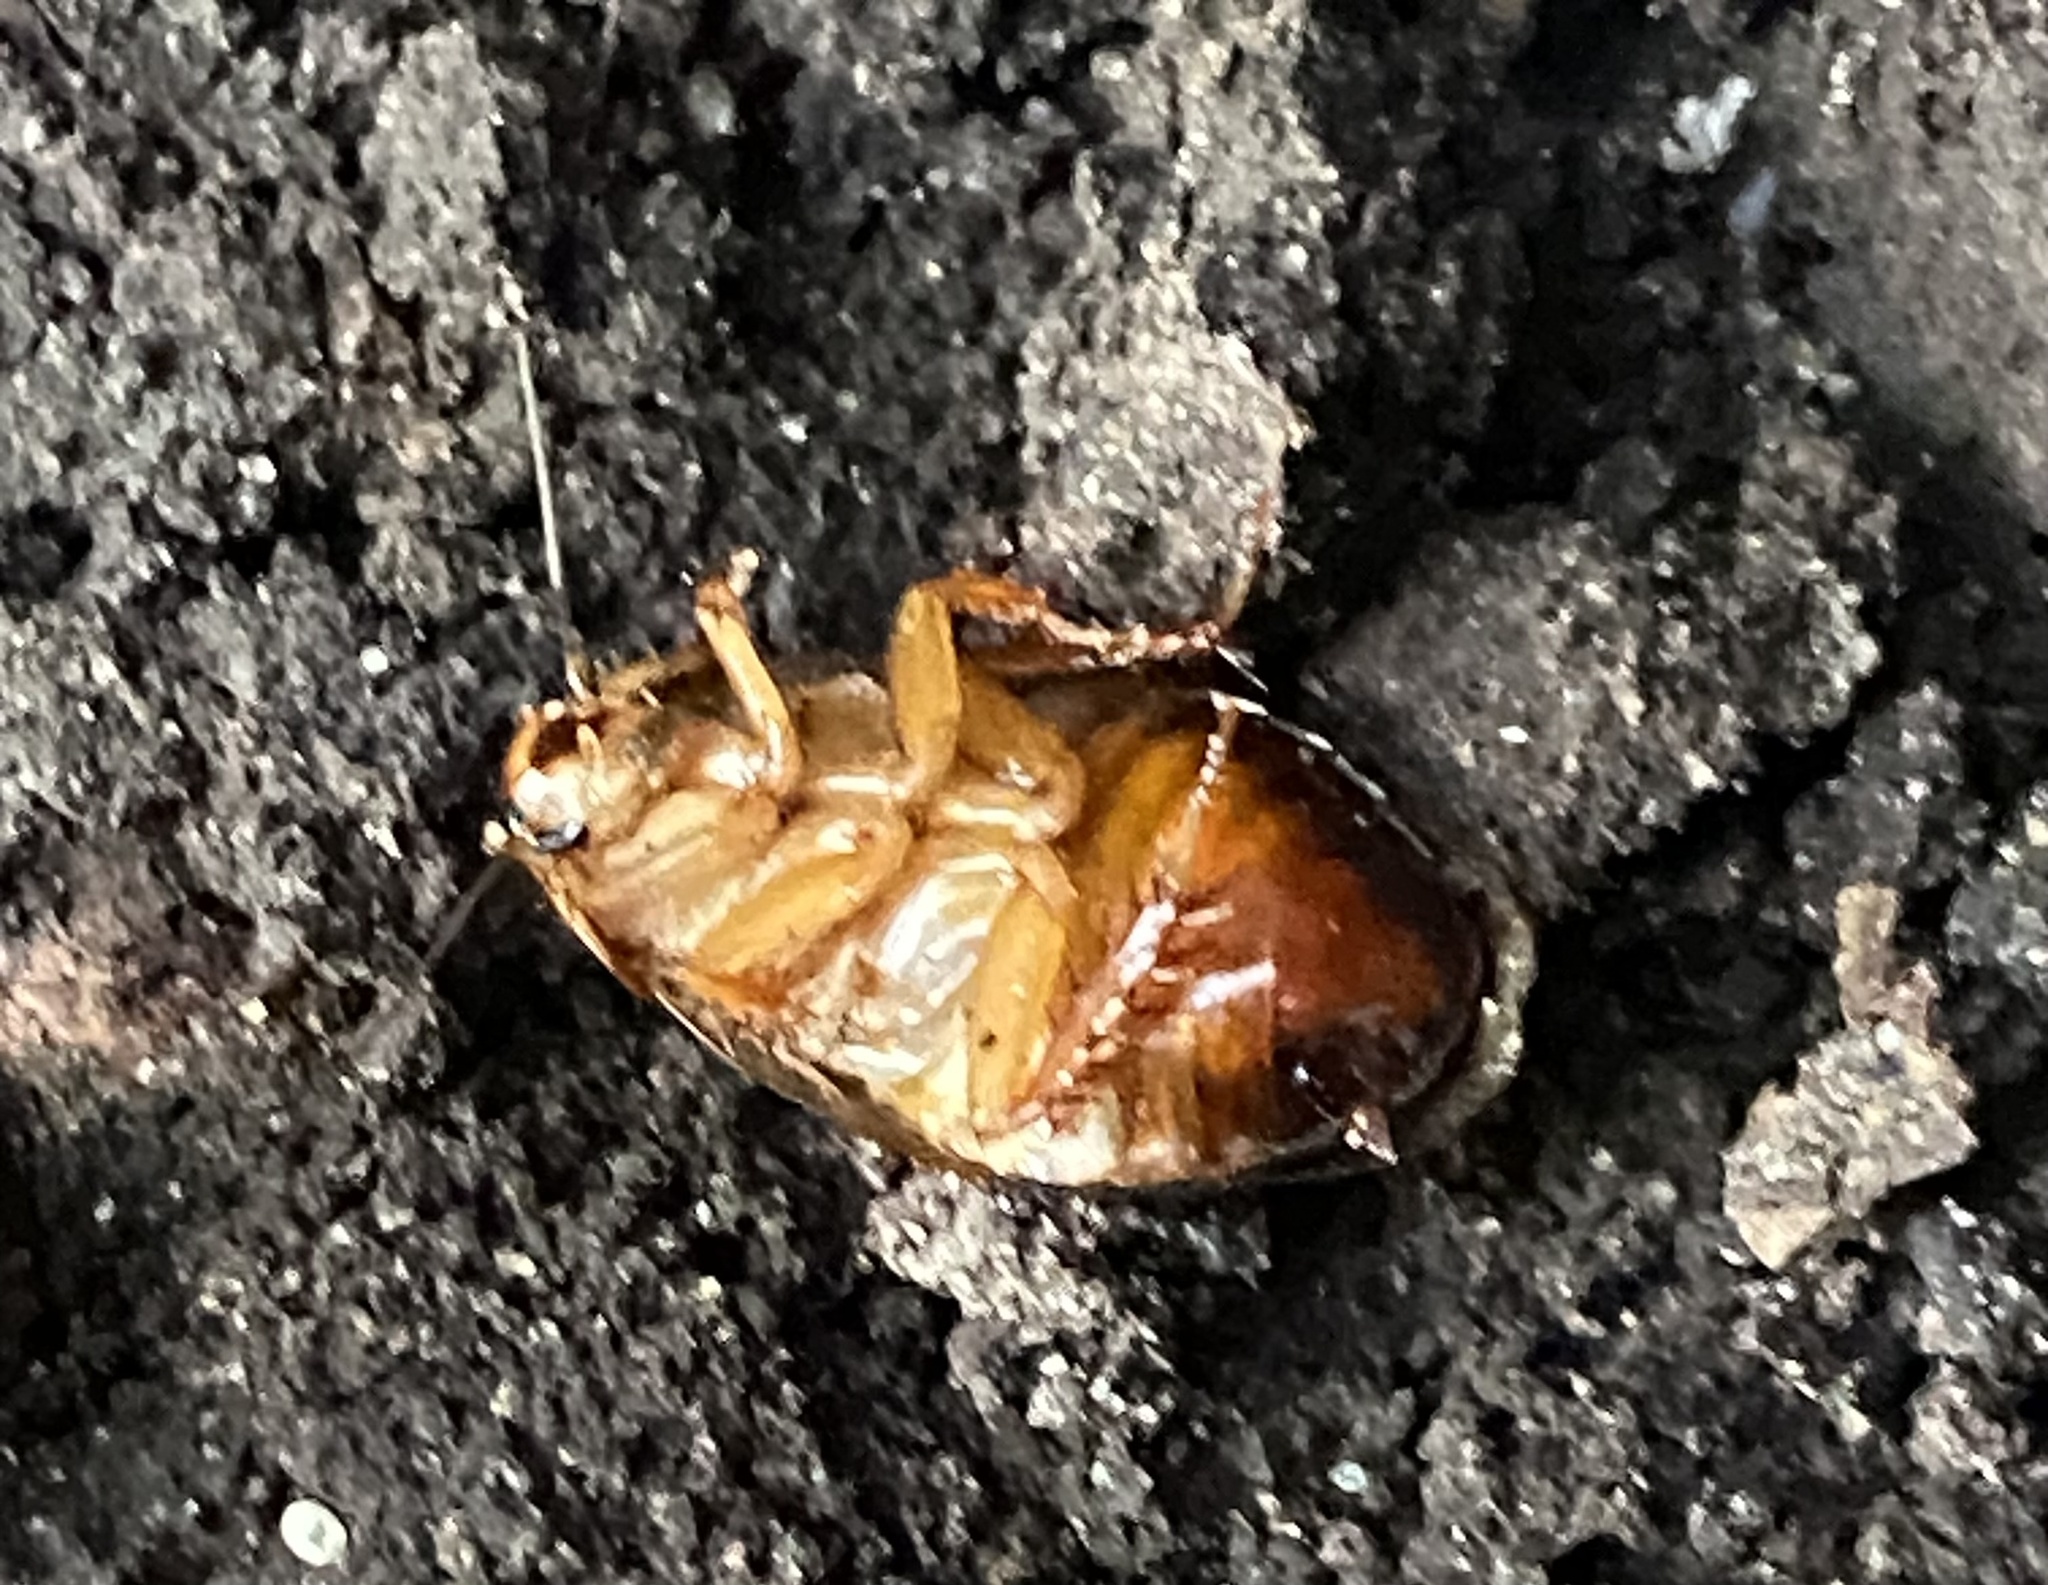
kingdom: Animalia
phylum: Arthropoda
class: Insecta
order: Blattodea
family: Blaberidae
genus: Pycnoscelus
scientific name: Pycnoscelus surinamensis
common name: Surinam cockroach
